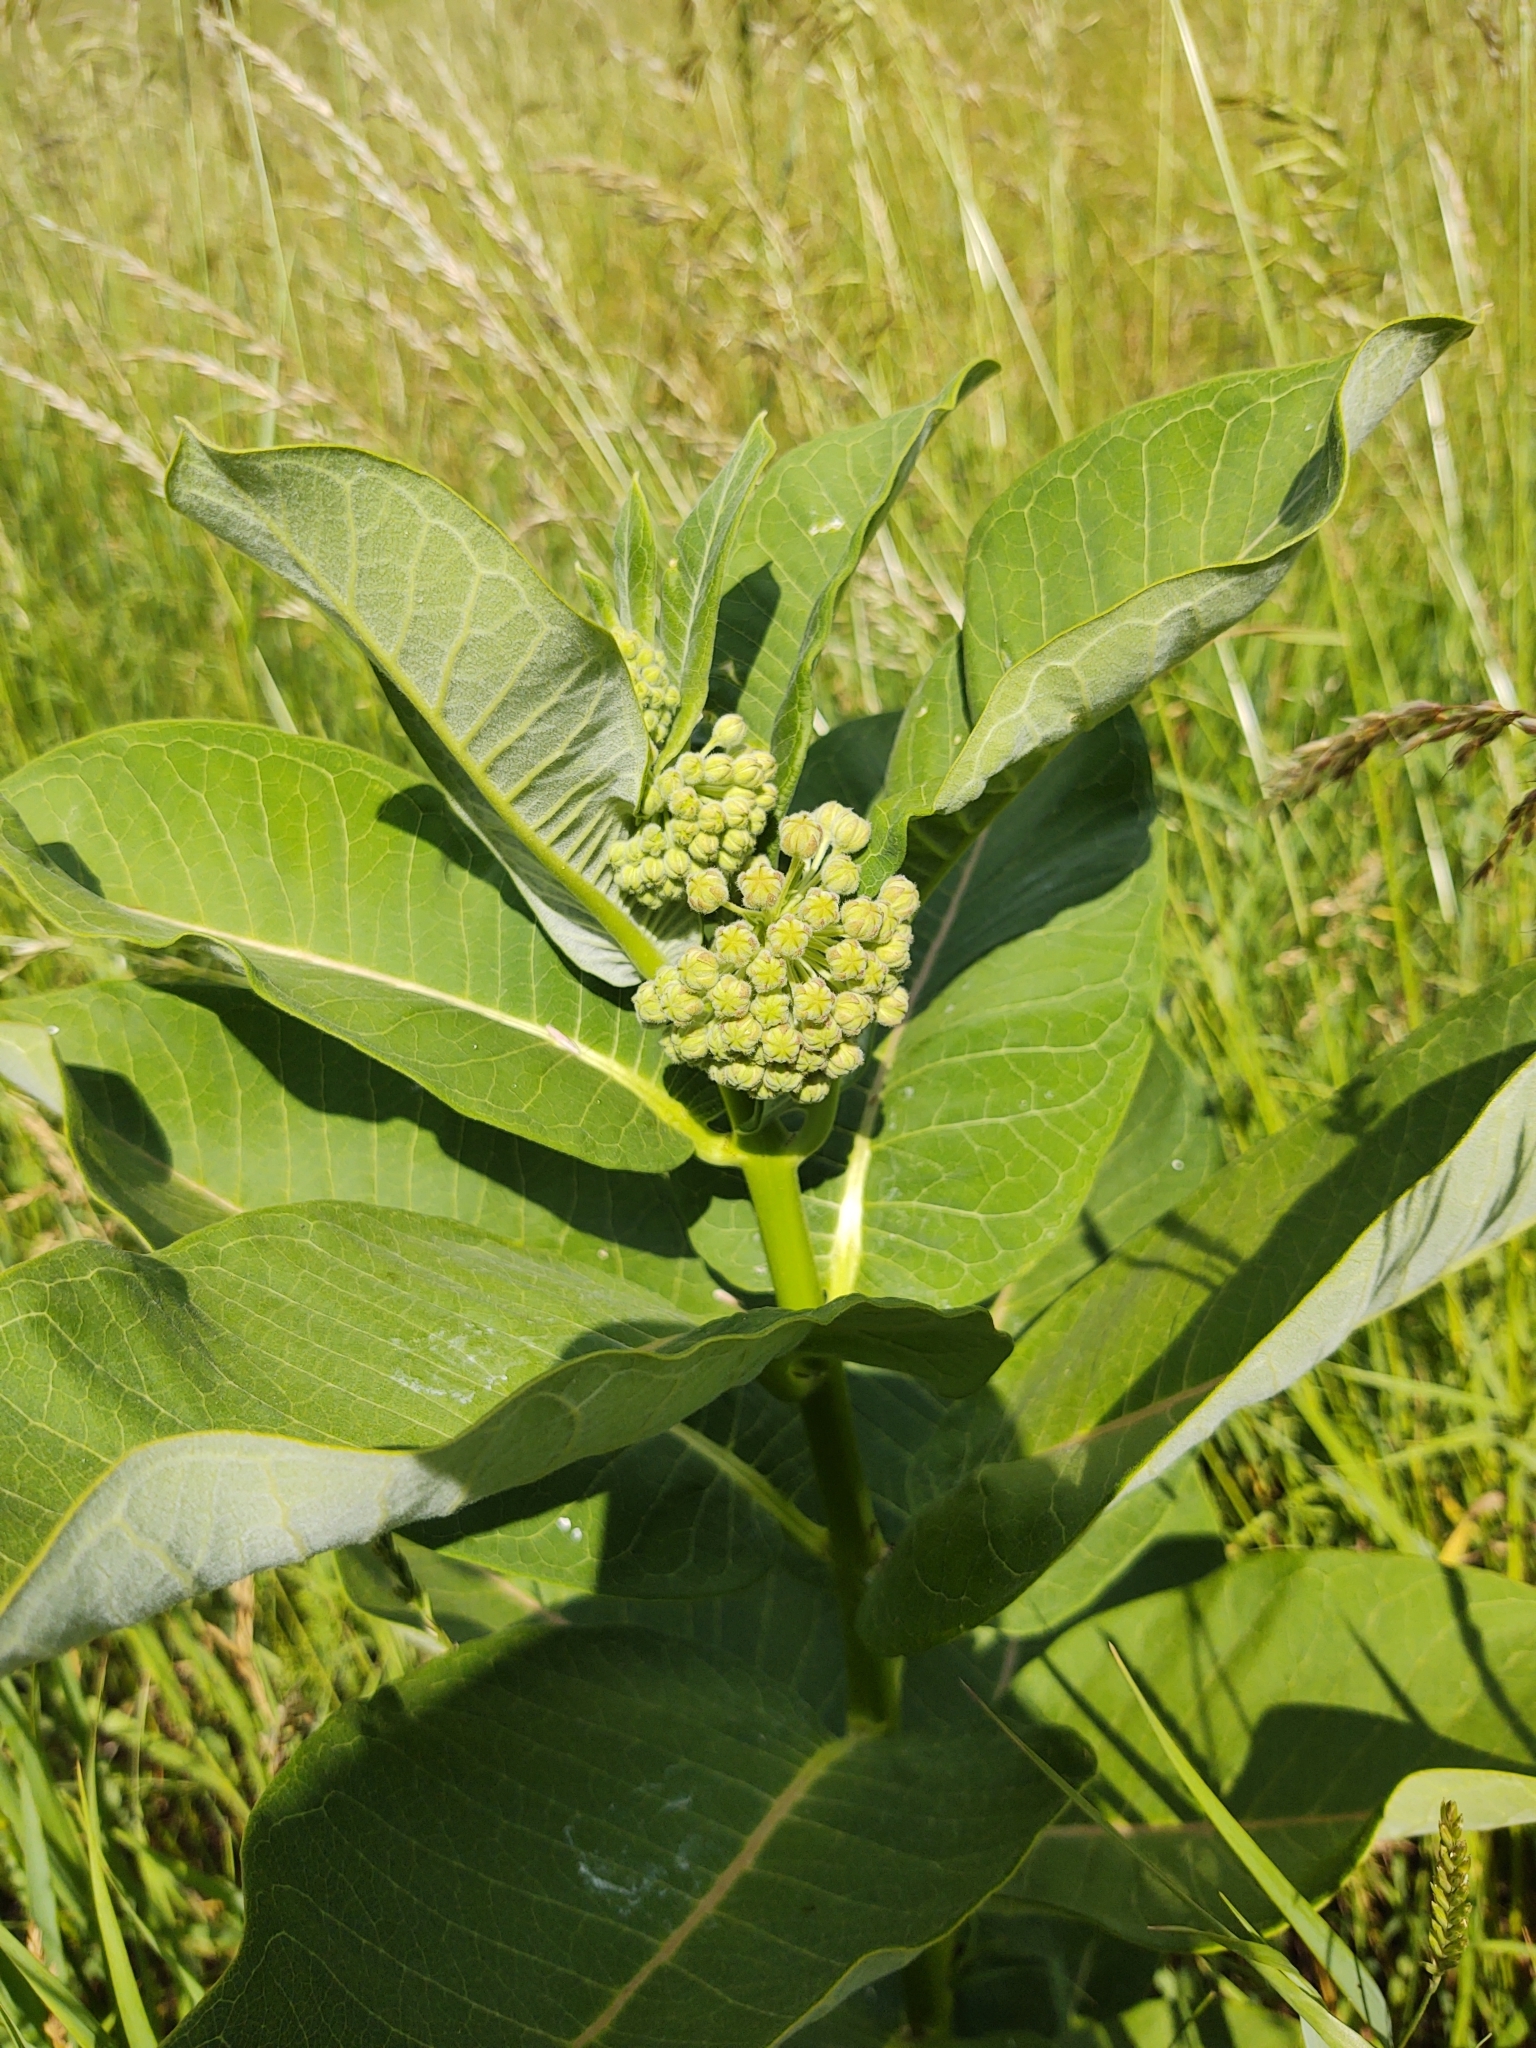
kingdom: Plantae
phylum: Tracheophyta
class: Magnoliopsida
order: Gentianales
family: Apocynaceae
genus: Asclepias
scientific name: Asclepias syriaca
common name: Common milkweed
